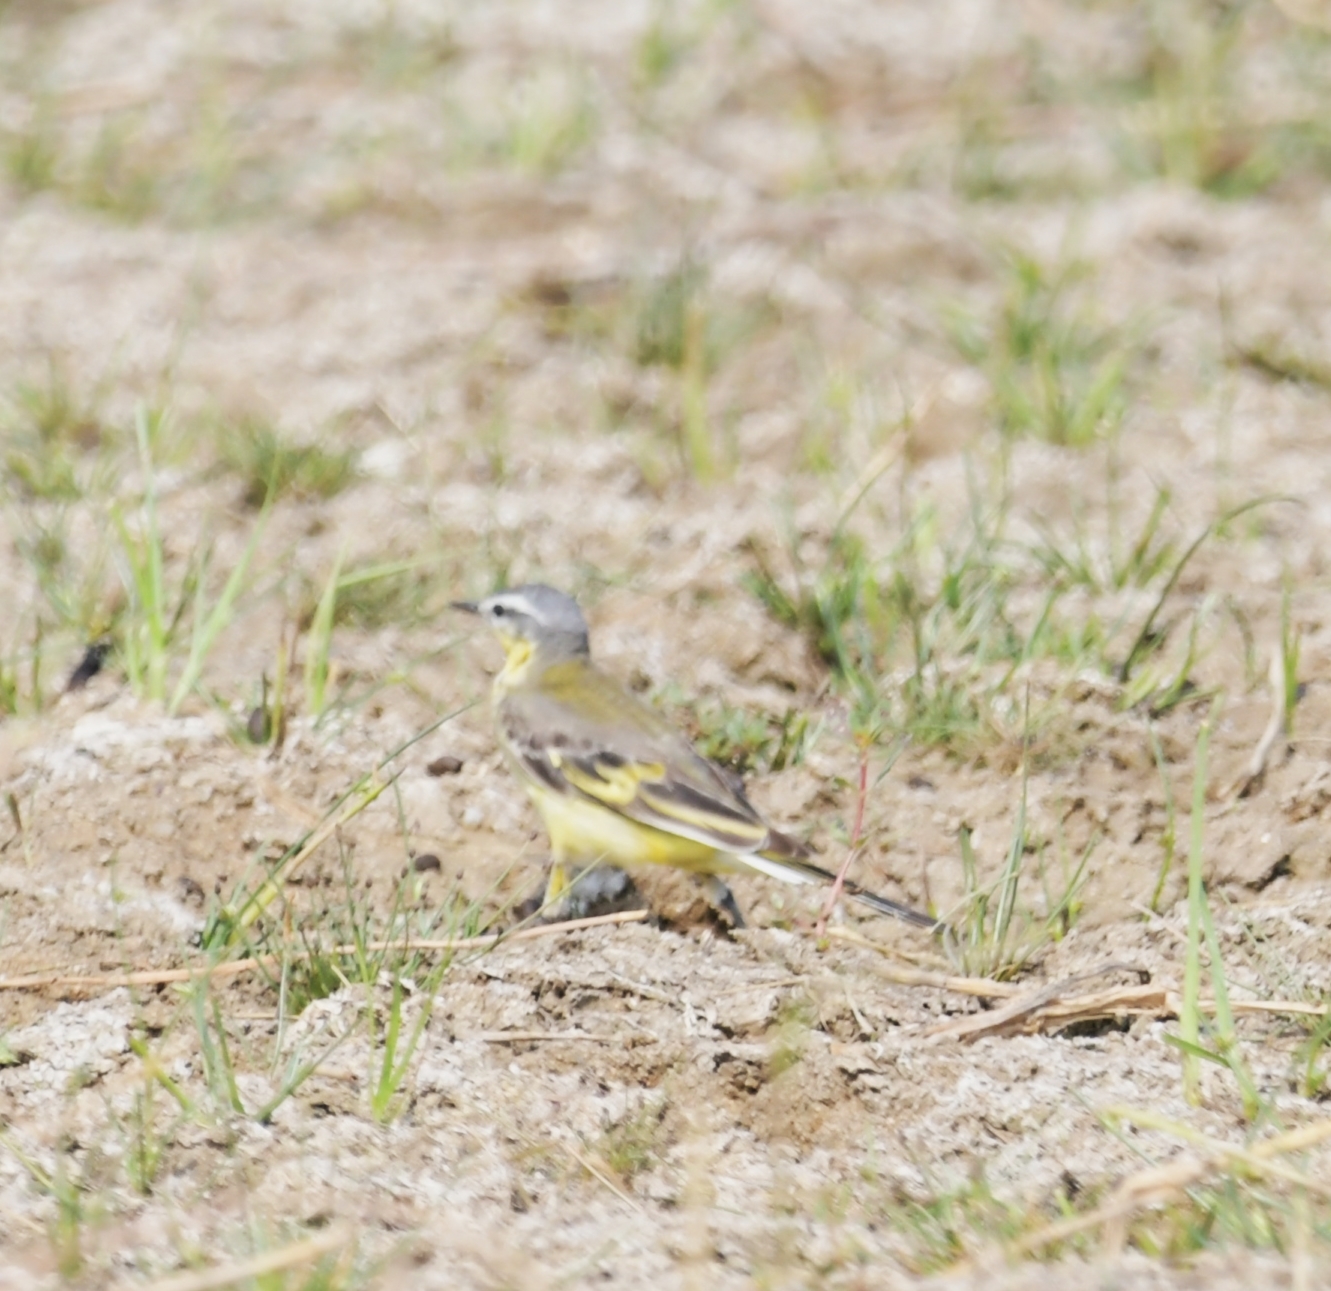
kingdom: Animalia
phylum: Chordata
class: Aves
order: Passeriformes
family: Motacillidae
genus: Motacilla
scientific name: Motacilla flava
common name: Western yellow wagtail
